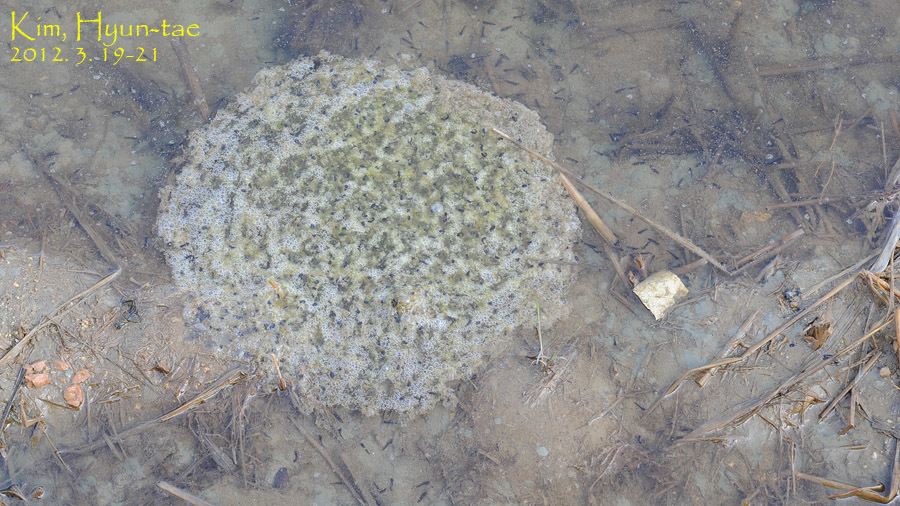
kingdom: Animalia
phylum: Chordata
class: Amphibia
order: Anura
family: Ranidae
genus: Rana
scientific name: Rana uenoi
